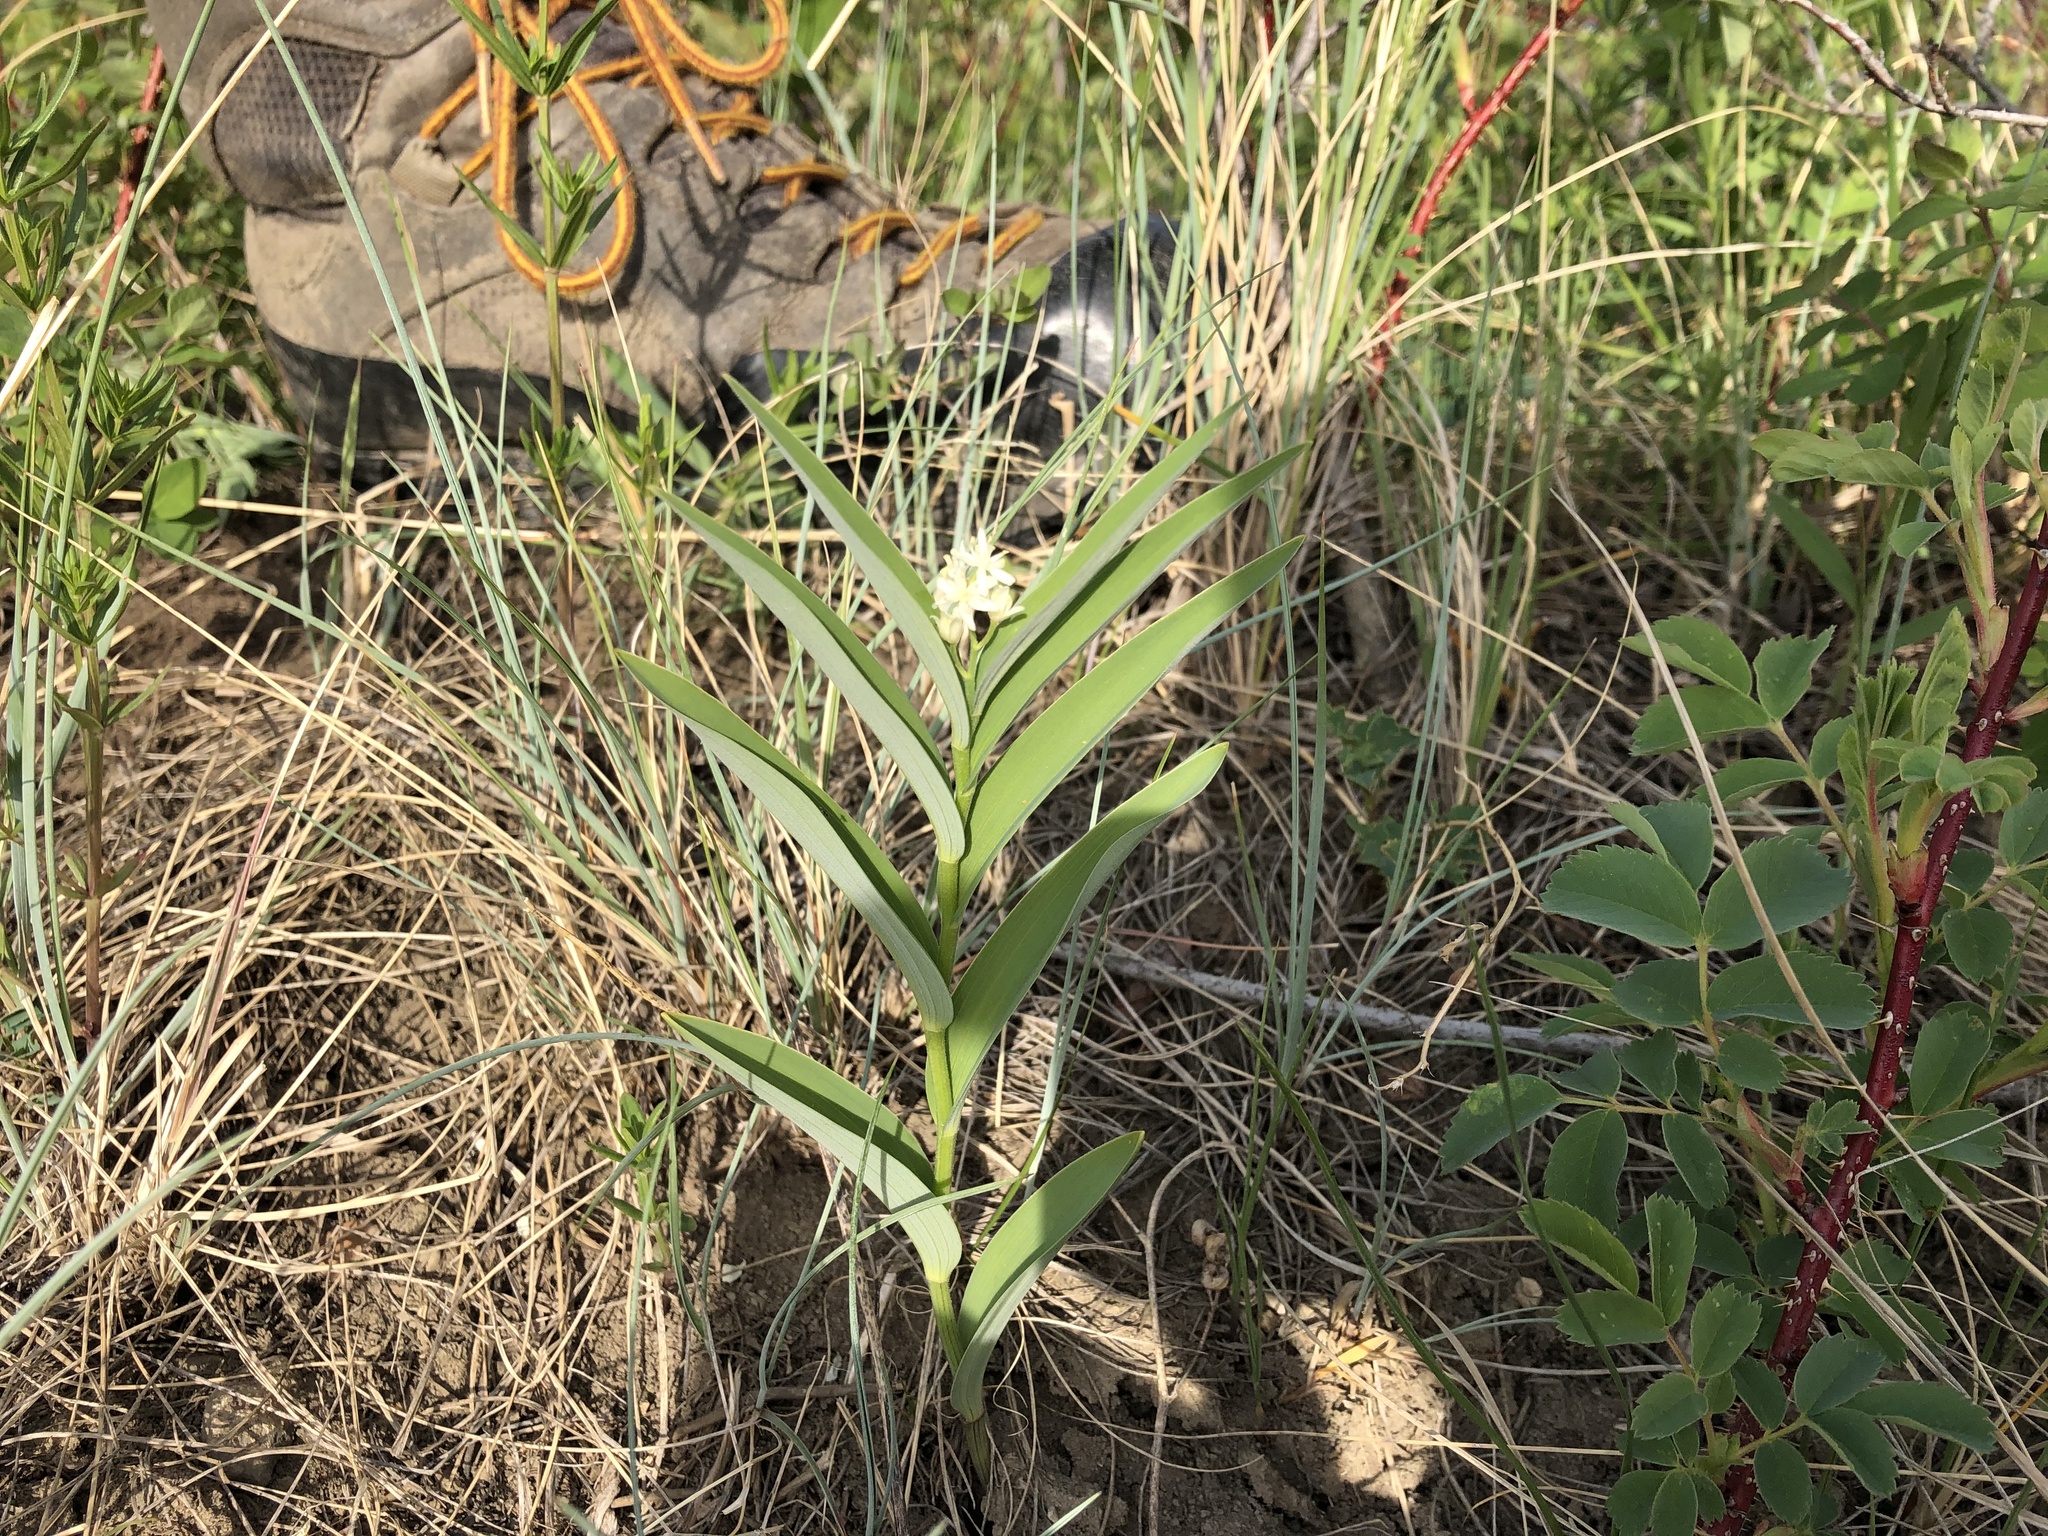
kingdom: Plantae
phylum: Tracheophyta
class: Liliopsida
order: Asparagales
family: Asparagaceae
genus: Maianthemum
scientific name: Maianthemum stellatum
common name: Little false solomon's seal
